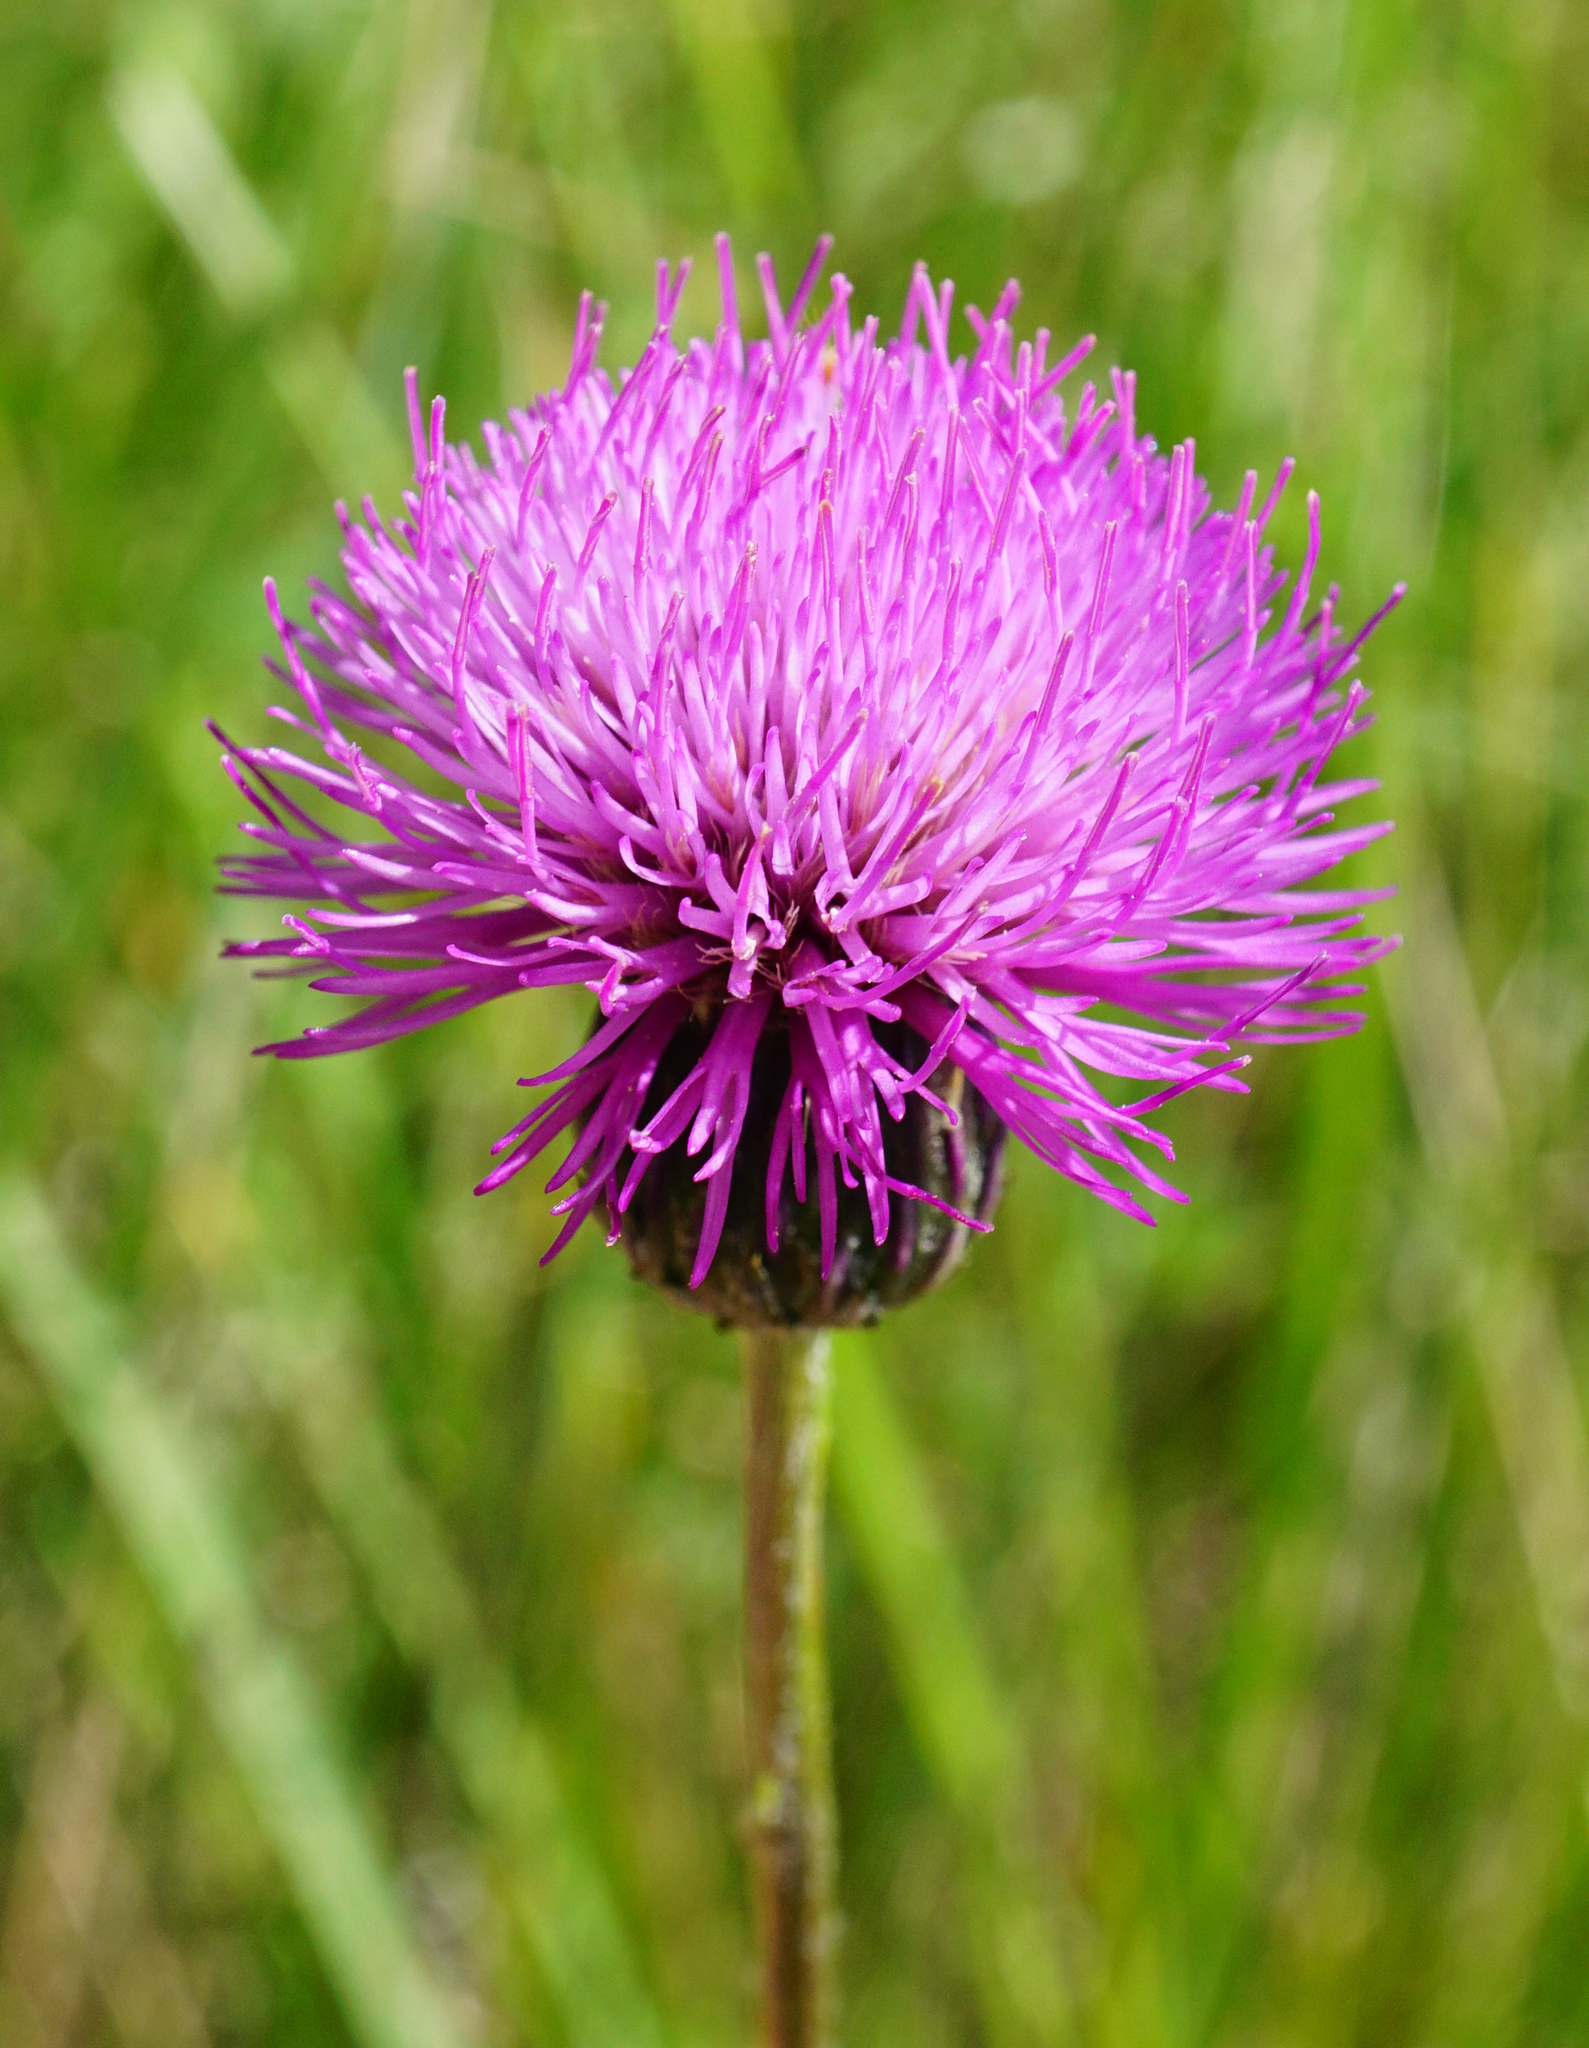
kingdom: Plantae
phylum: Tracheophyta
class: Magnoliopsida
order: Asterales
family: Asteraceae
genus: Cirsium
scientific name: Cirsium pannonicum
